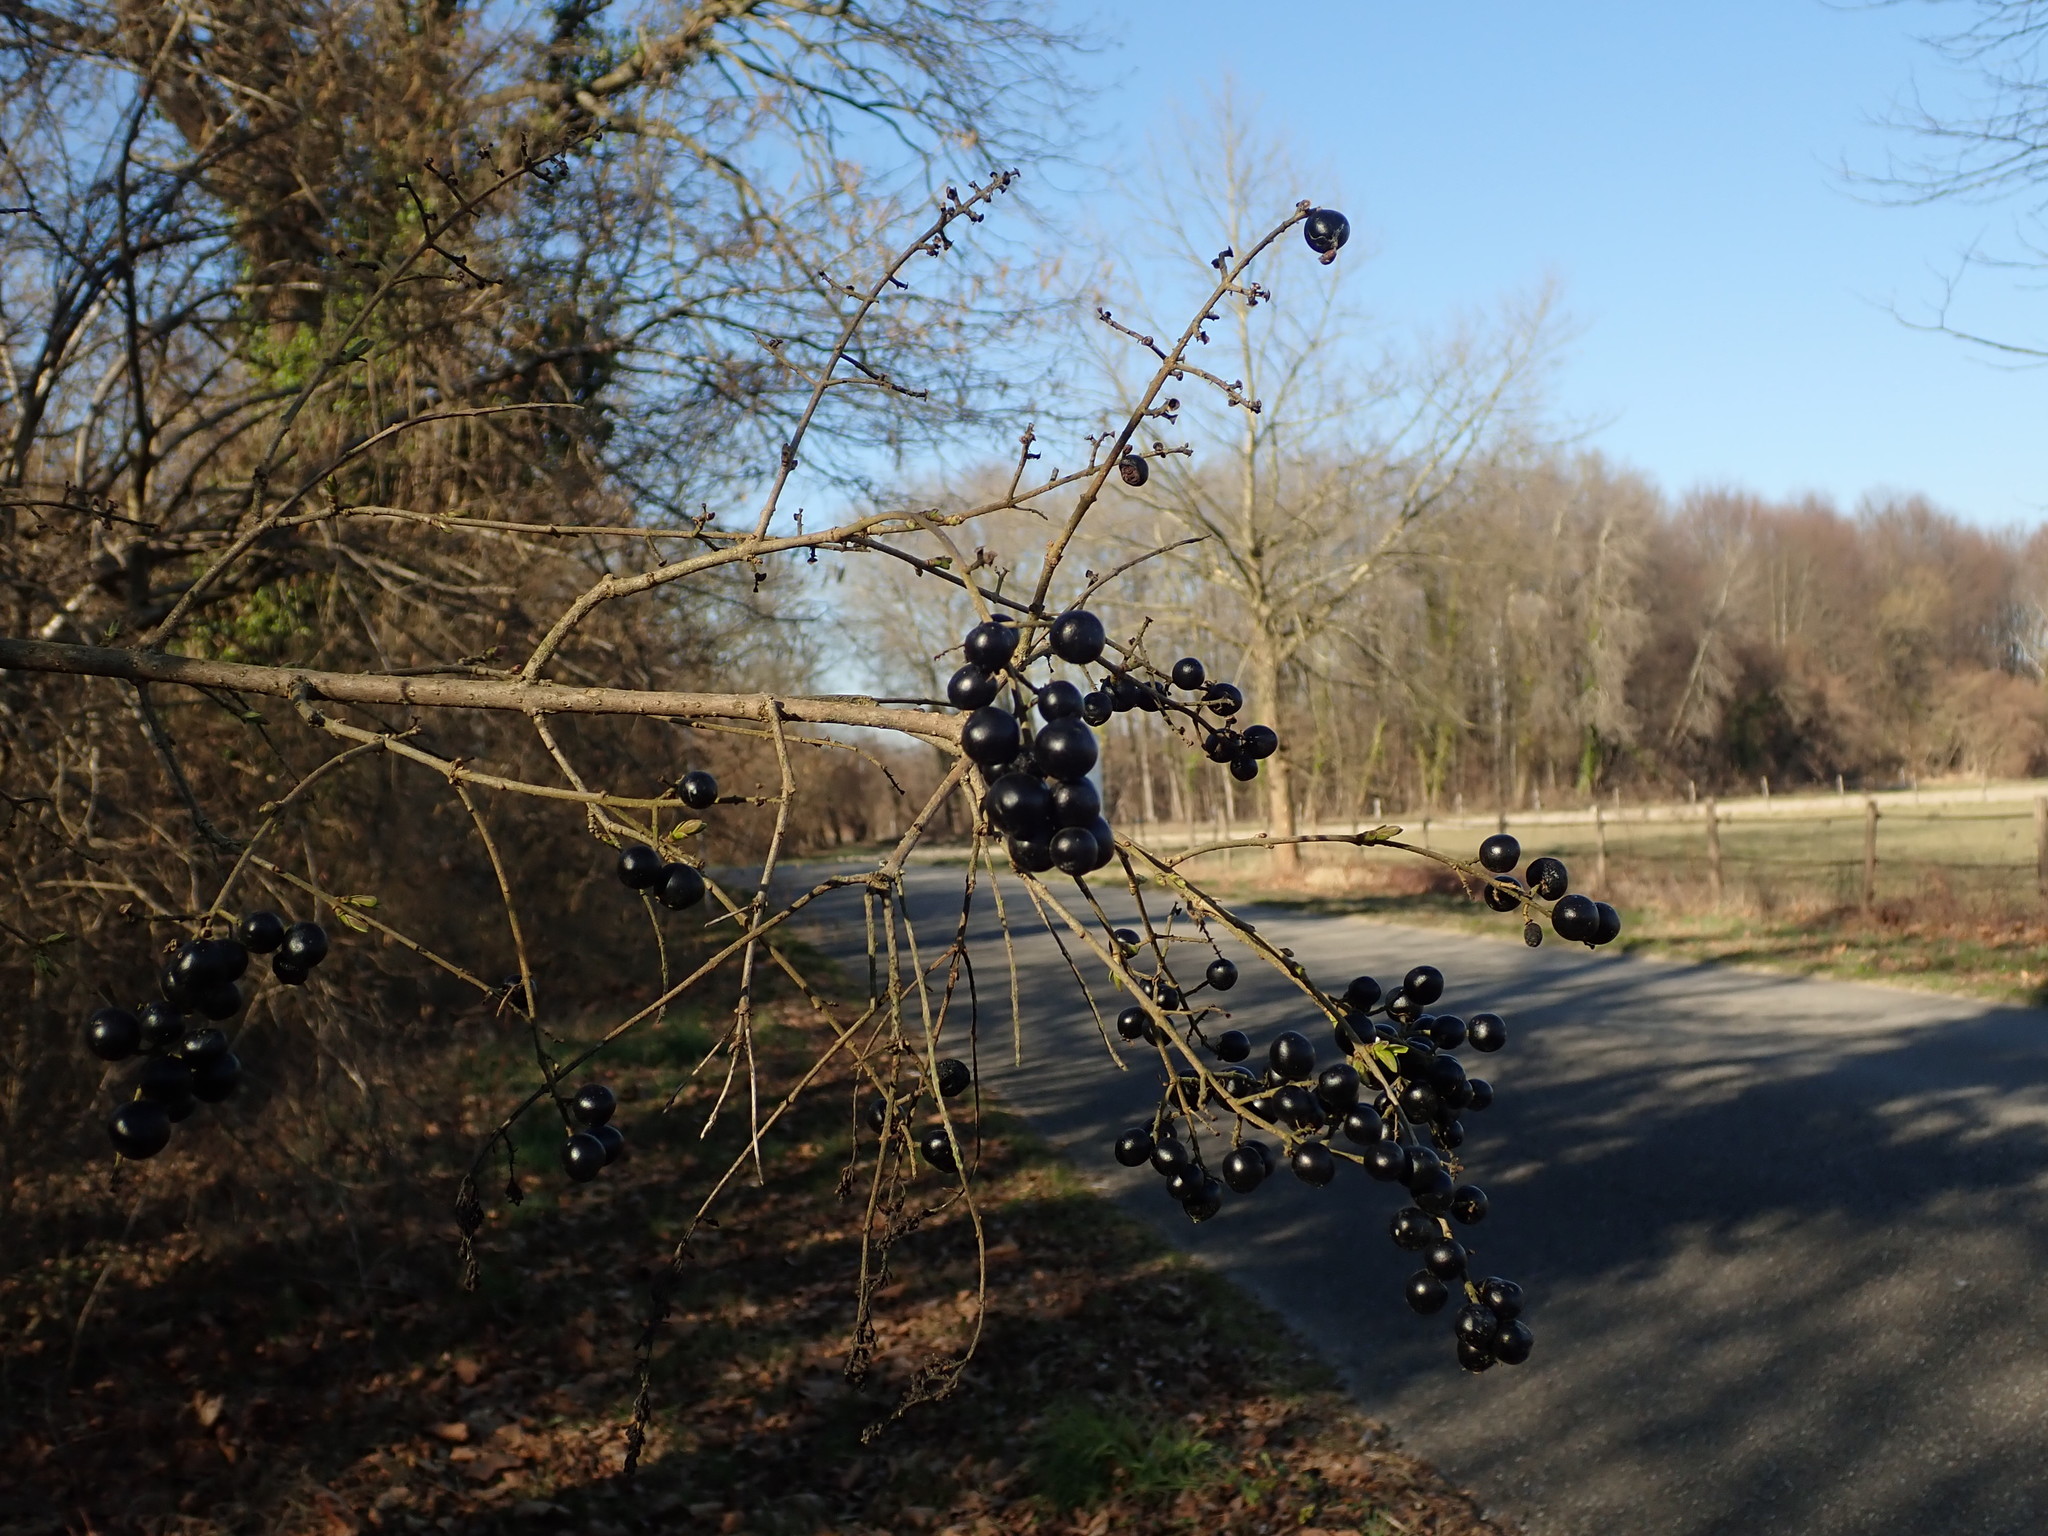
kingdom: Plantae
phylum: Tracheophyta
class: Magnoliopsida
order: Lamiales
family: Oleaceae
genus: Ligustrum
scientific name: Ligustrum vulgare
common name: Wild privet
